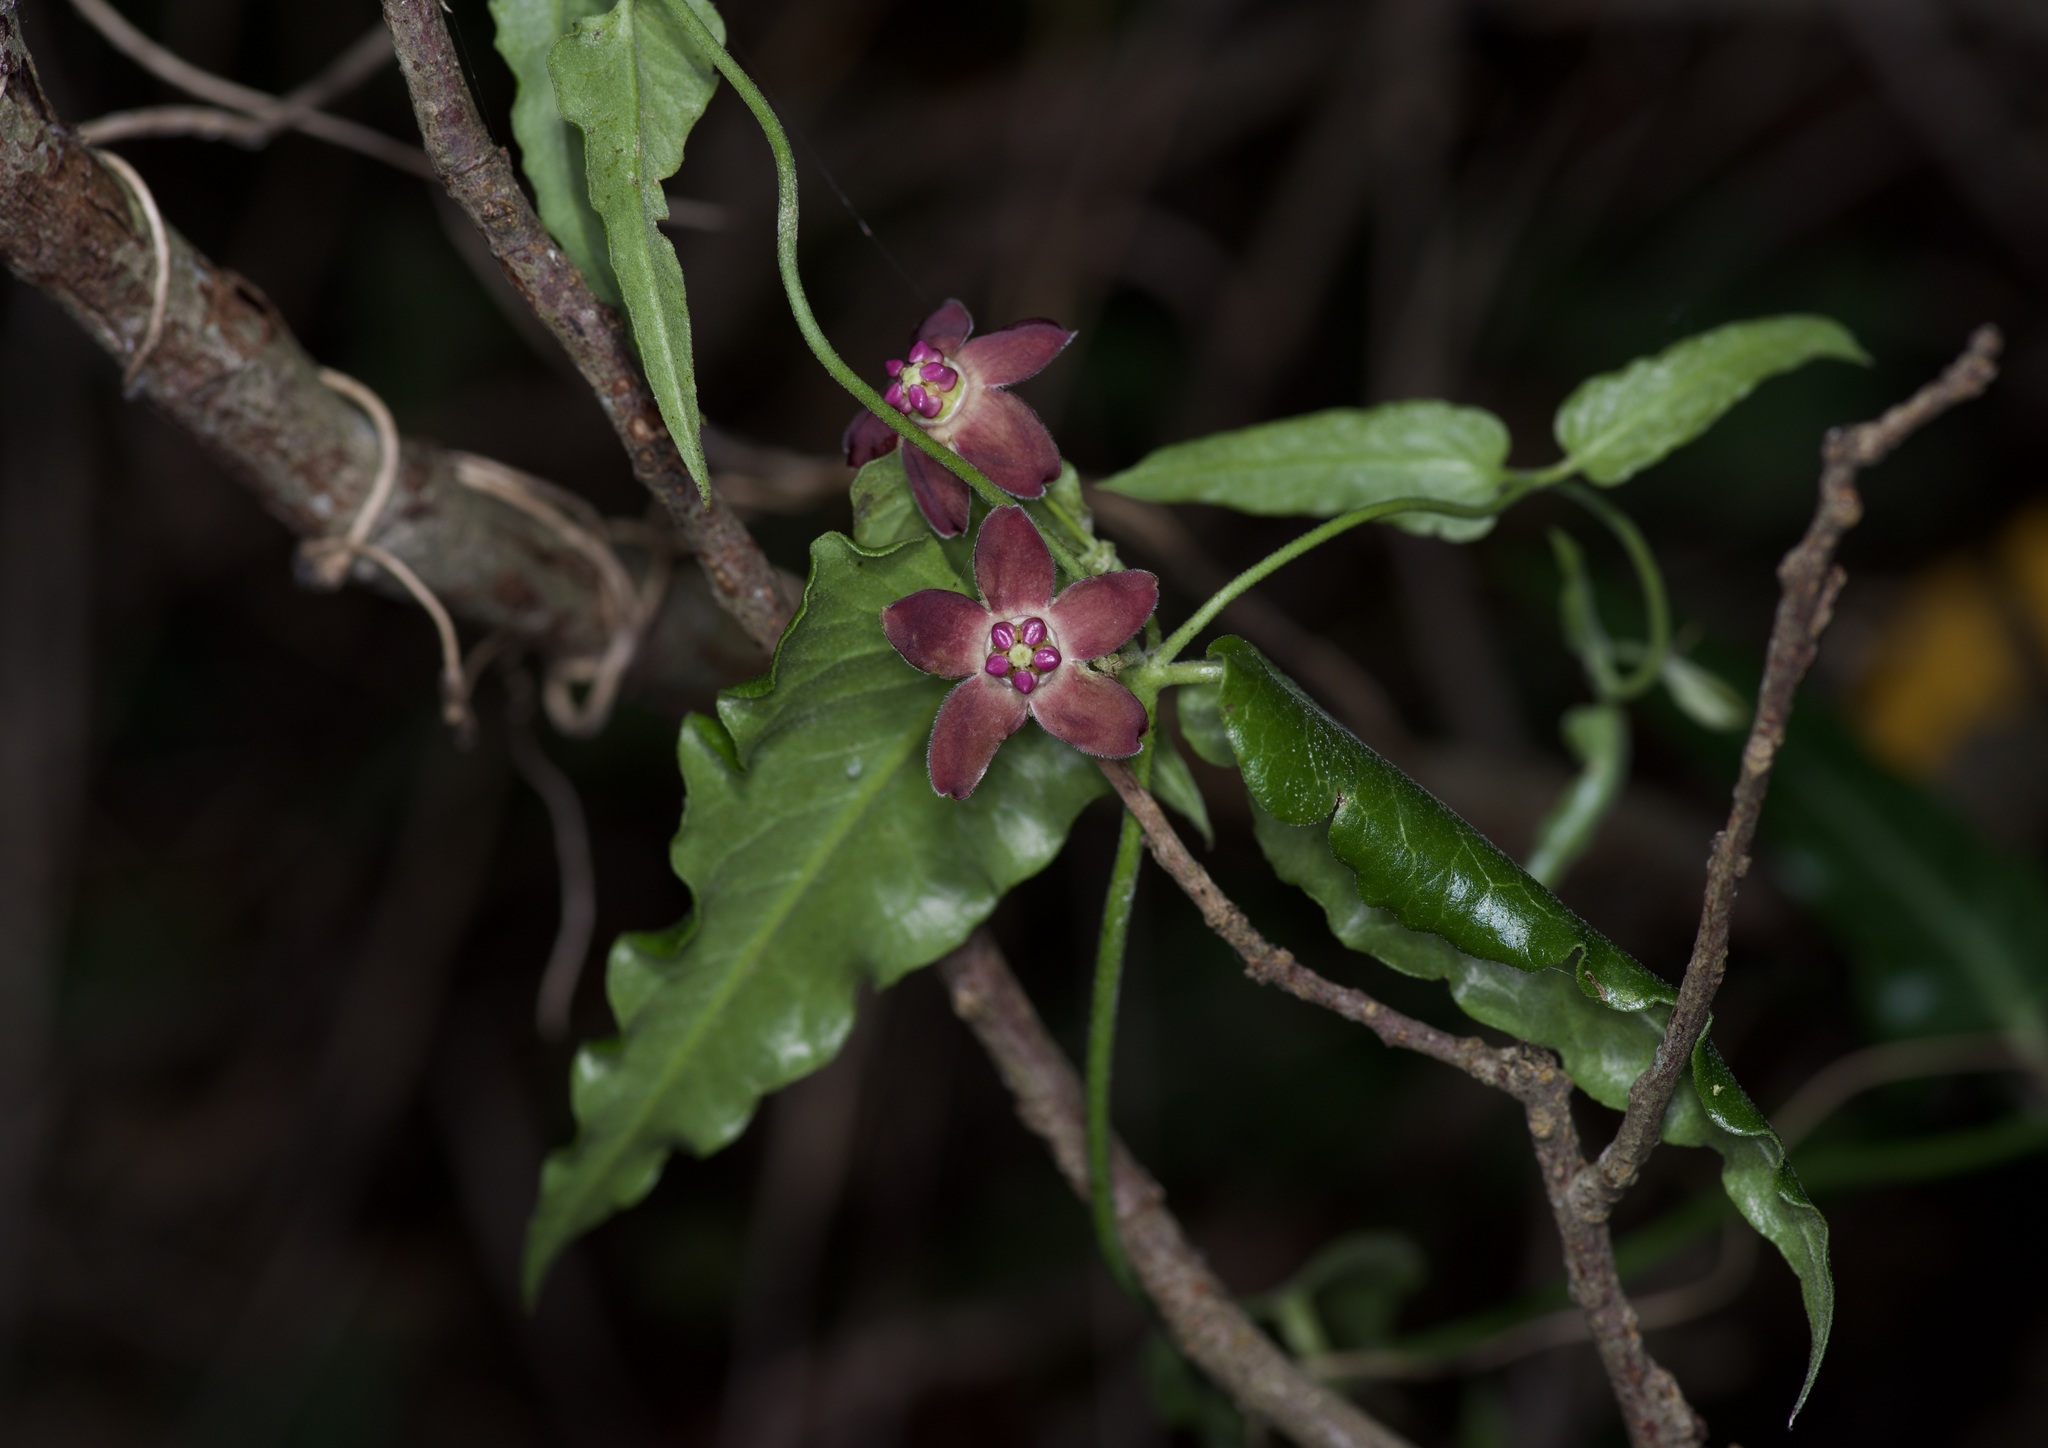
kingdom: Plantae
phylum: Tracheophyta
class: Magnoliopsida
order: Gentianales
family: Apocynaceae
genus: Funastrum
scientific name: Funastrum crispum
